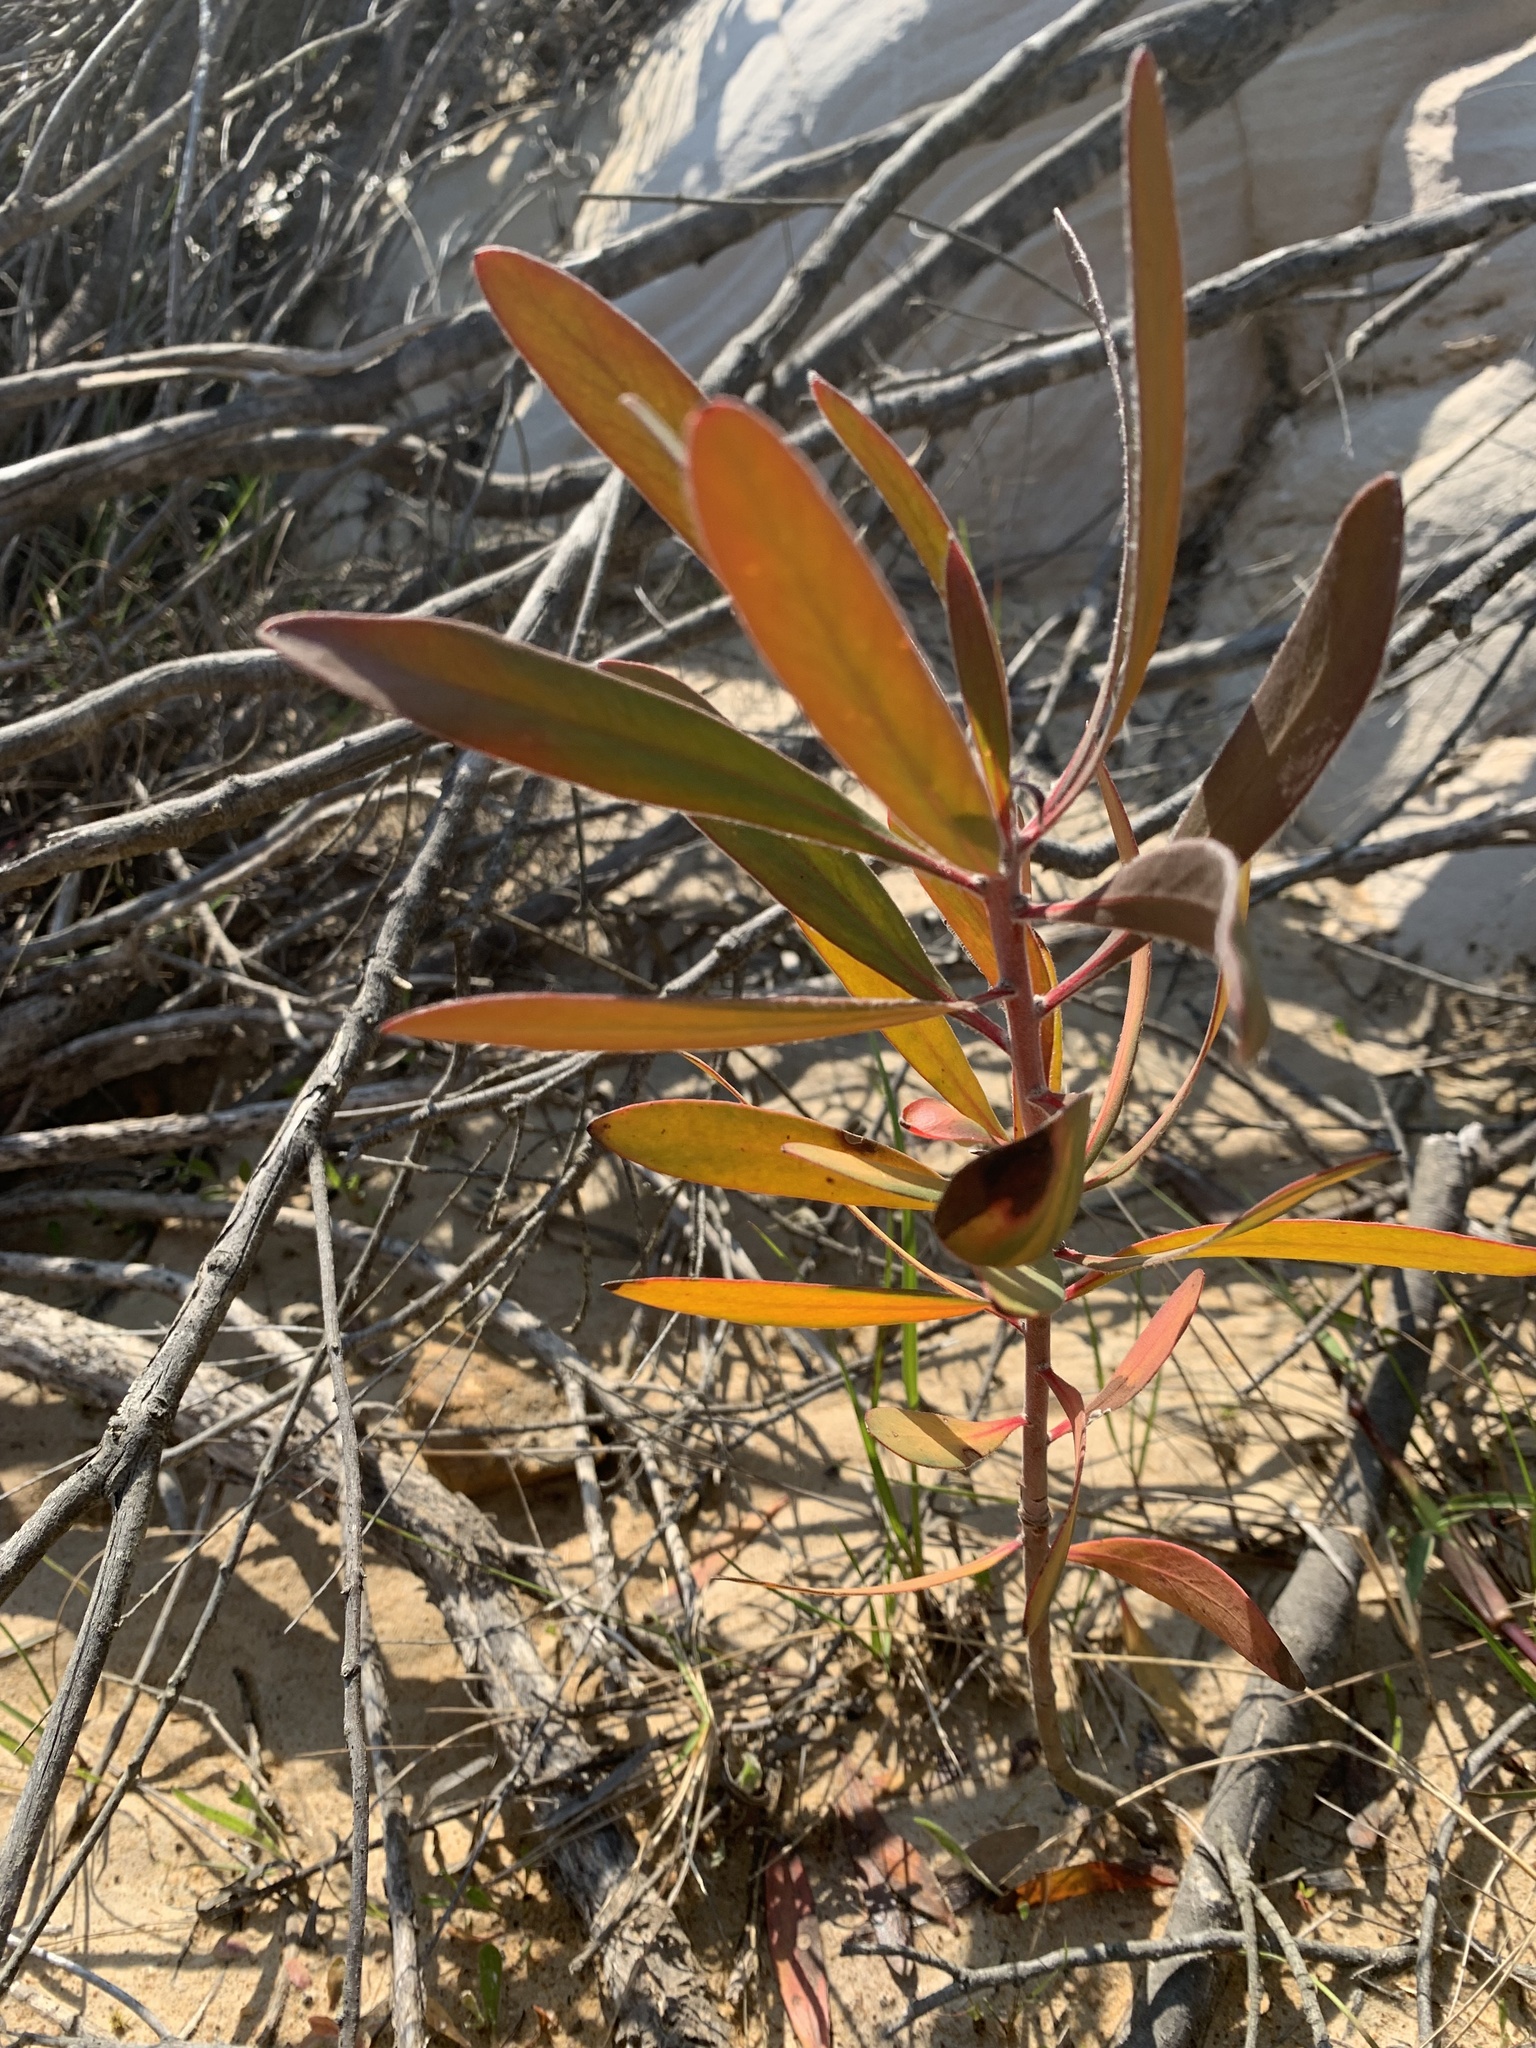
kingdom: Plantae
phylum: Tracheophyta
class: Magnoliopsida
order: Proteales
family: Proteaceae
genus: Protea
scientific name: Protea susannae
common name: Foetid-leaf sugarbush
